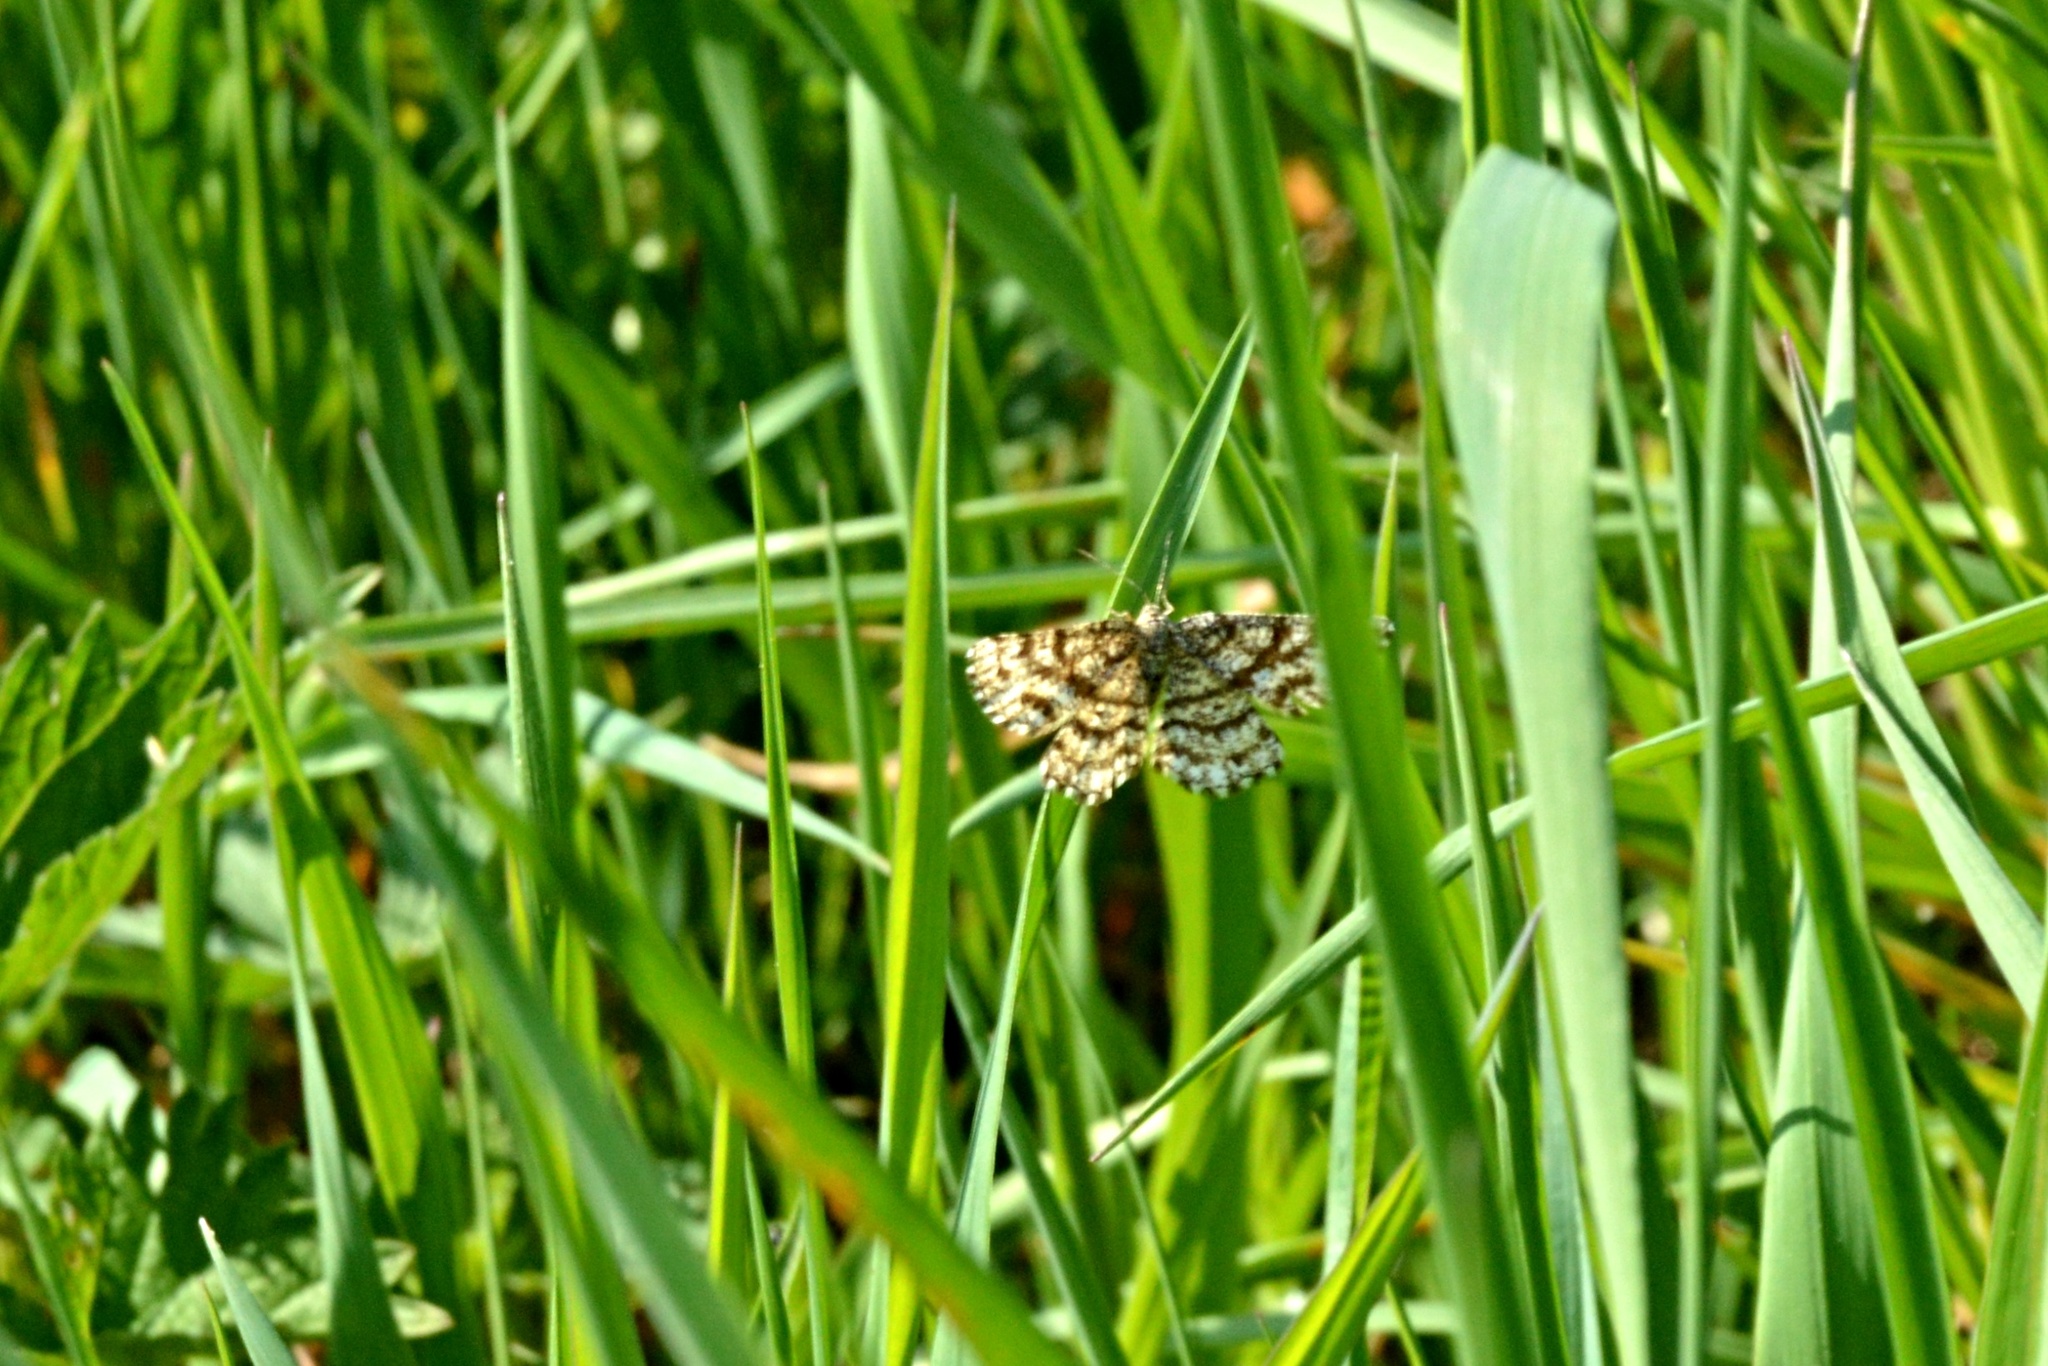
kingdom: Animalia
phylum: Arthropoda
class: Insecta
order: Lepidoptera
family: Geometridae
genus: Ematurga
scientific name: Ematurga atomaria
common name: Common heath
